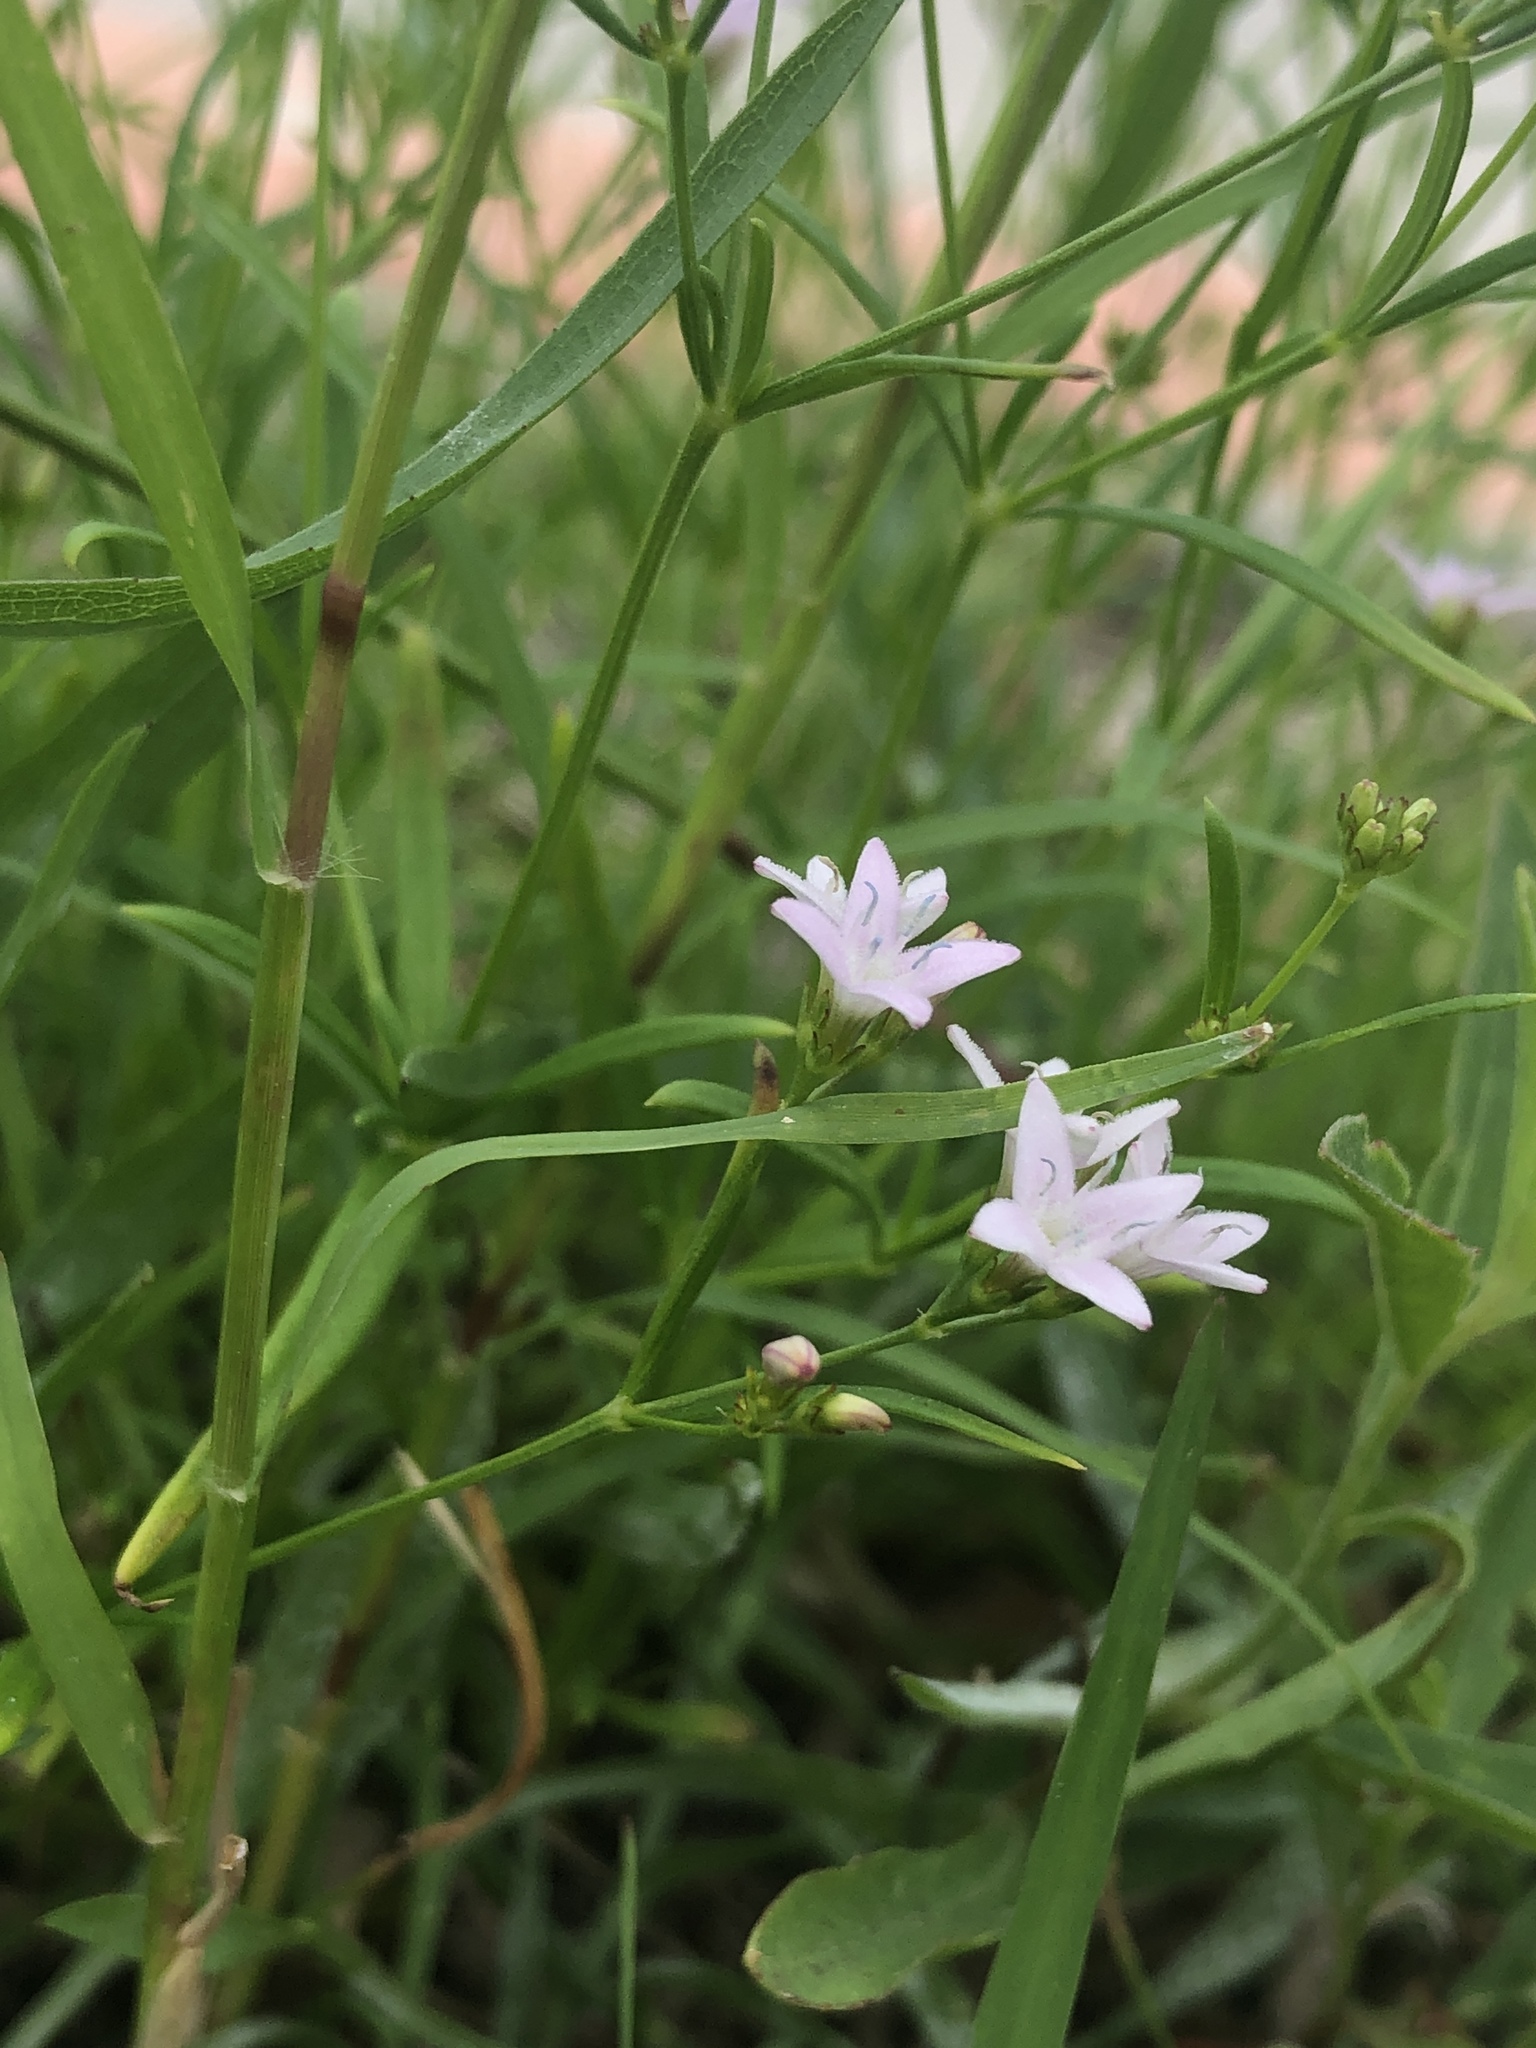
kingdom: Plantae
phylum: Tracheophyta
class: Magnoliopsida
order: Gentianales
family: Rubiaceae
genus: Stenaria
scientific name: Stenaria nigricans
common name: Diamondflowers
